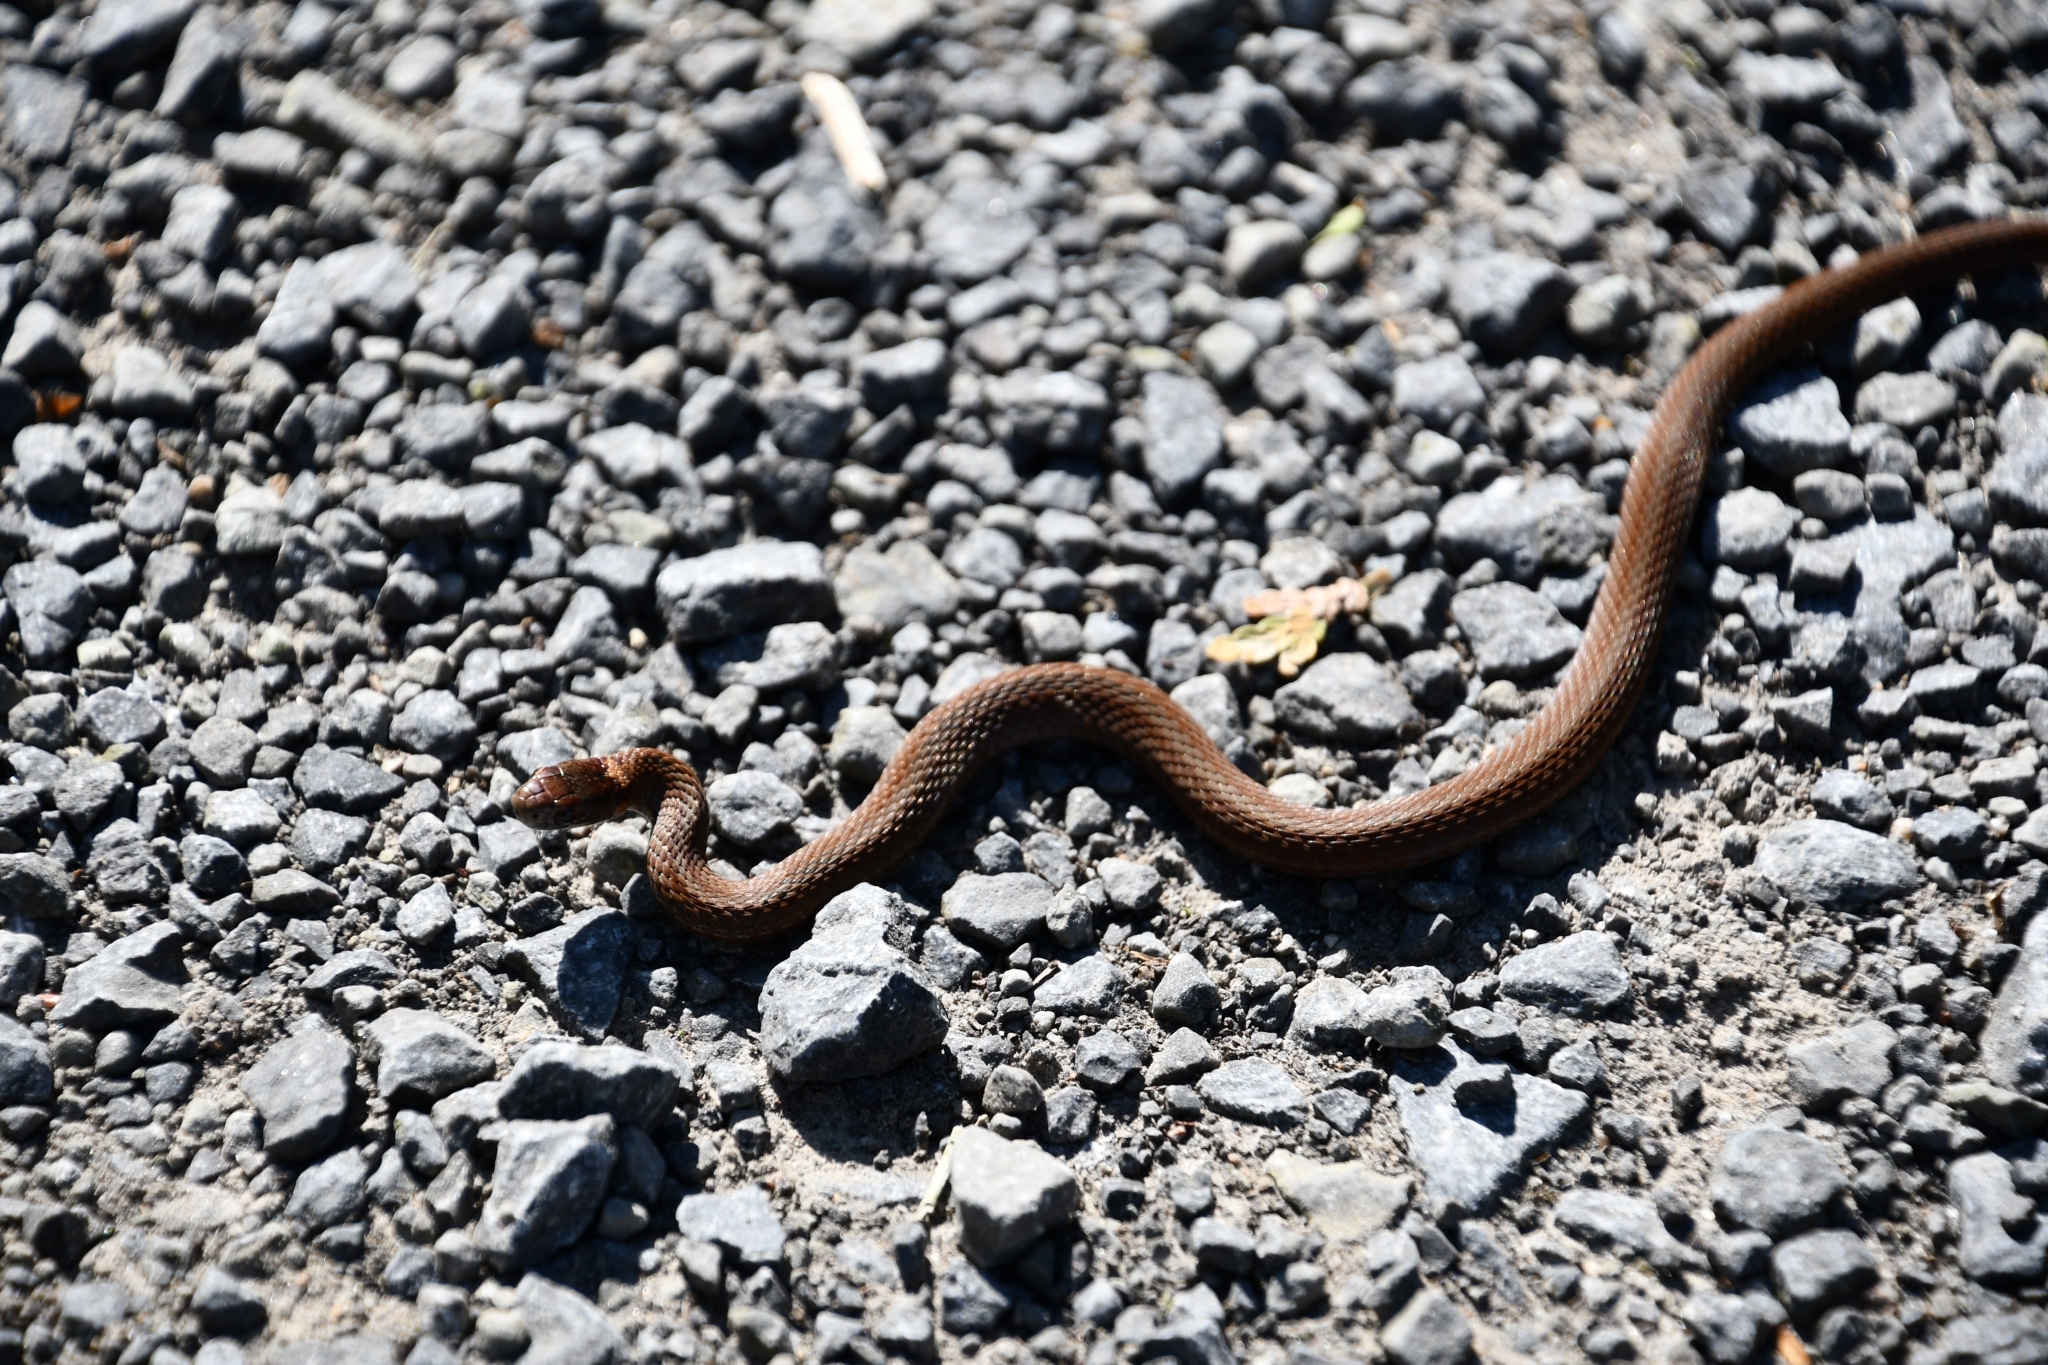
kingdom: Animalia
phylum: Chordata
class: Squamata
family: Colubridae
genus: Storeria
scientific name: Storeria occipitomaculata
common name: Redbelly snake
